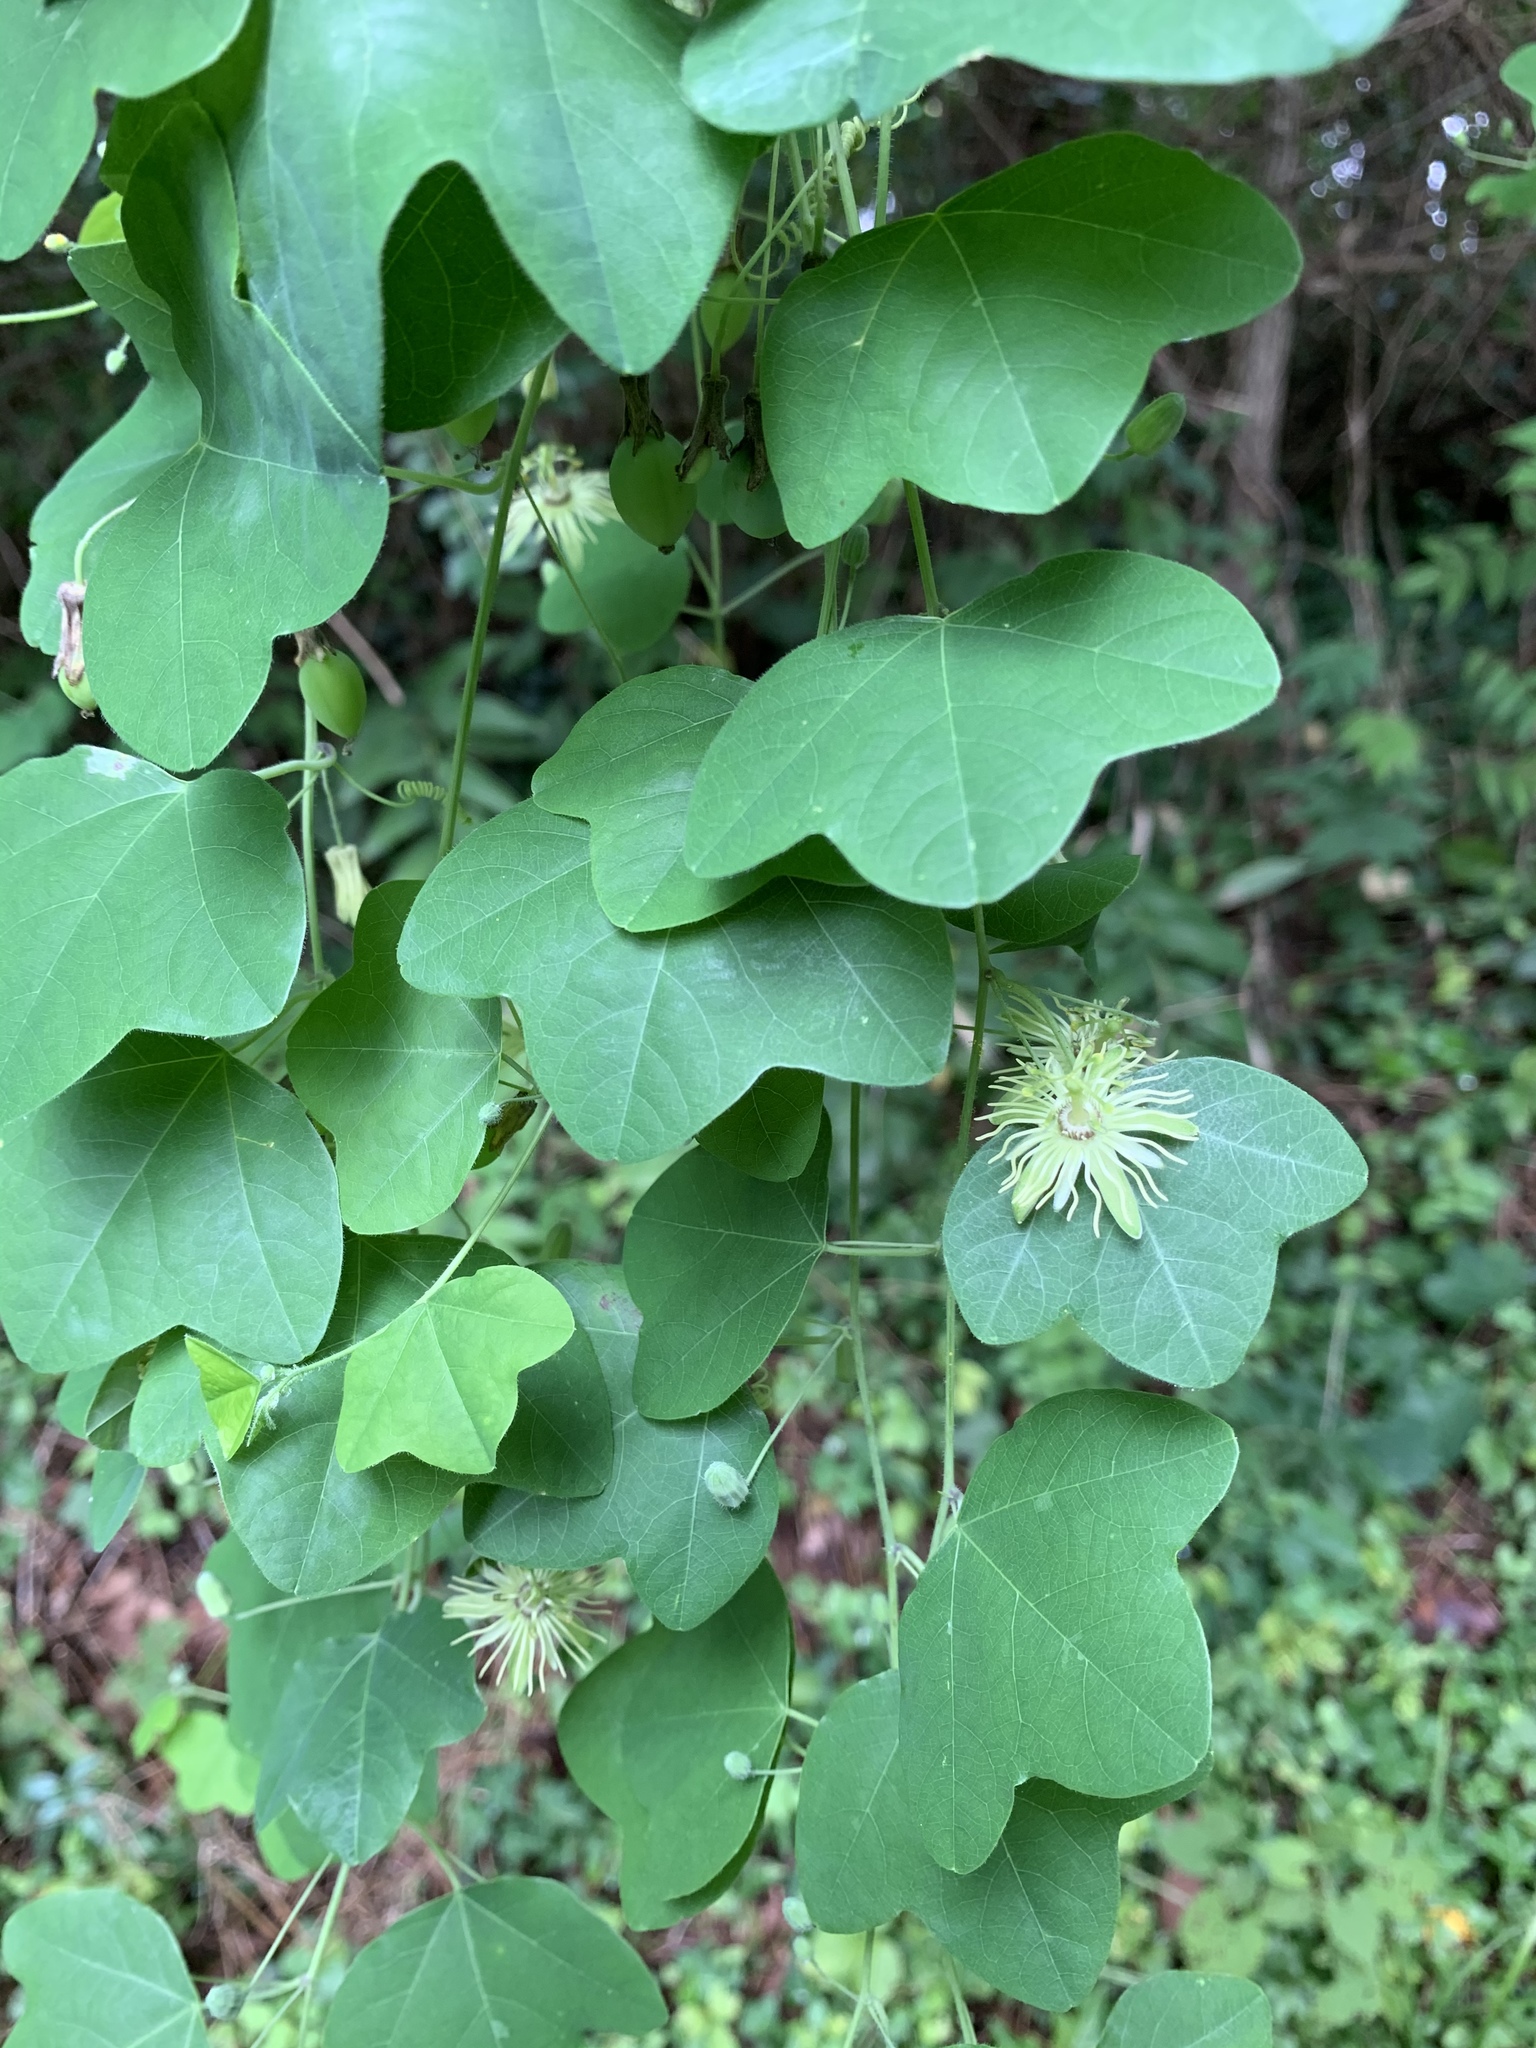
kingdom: Plantae
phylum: Tracheophyta
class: Magnoliopsida
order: Malpighiales
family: Passifloraceae
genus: Passiflora
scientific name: Passiflora lutea
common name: Yellow passionflower
